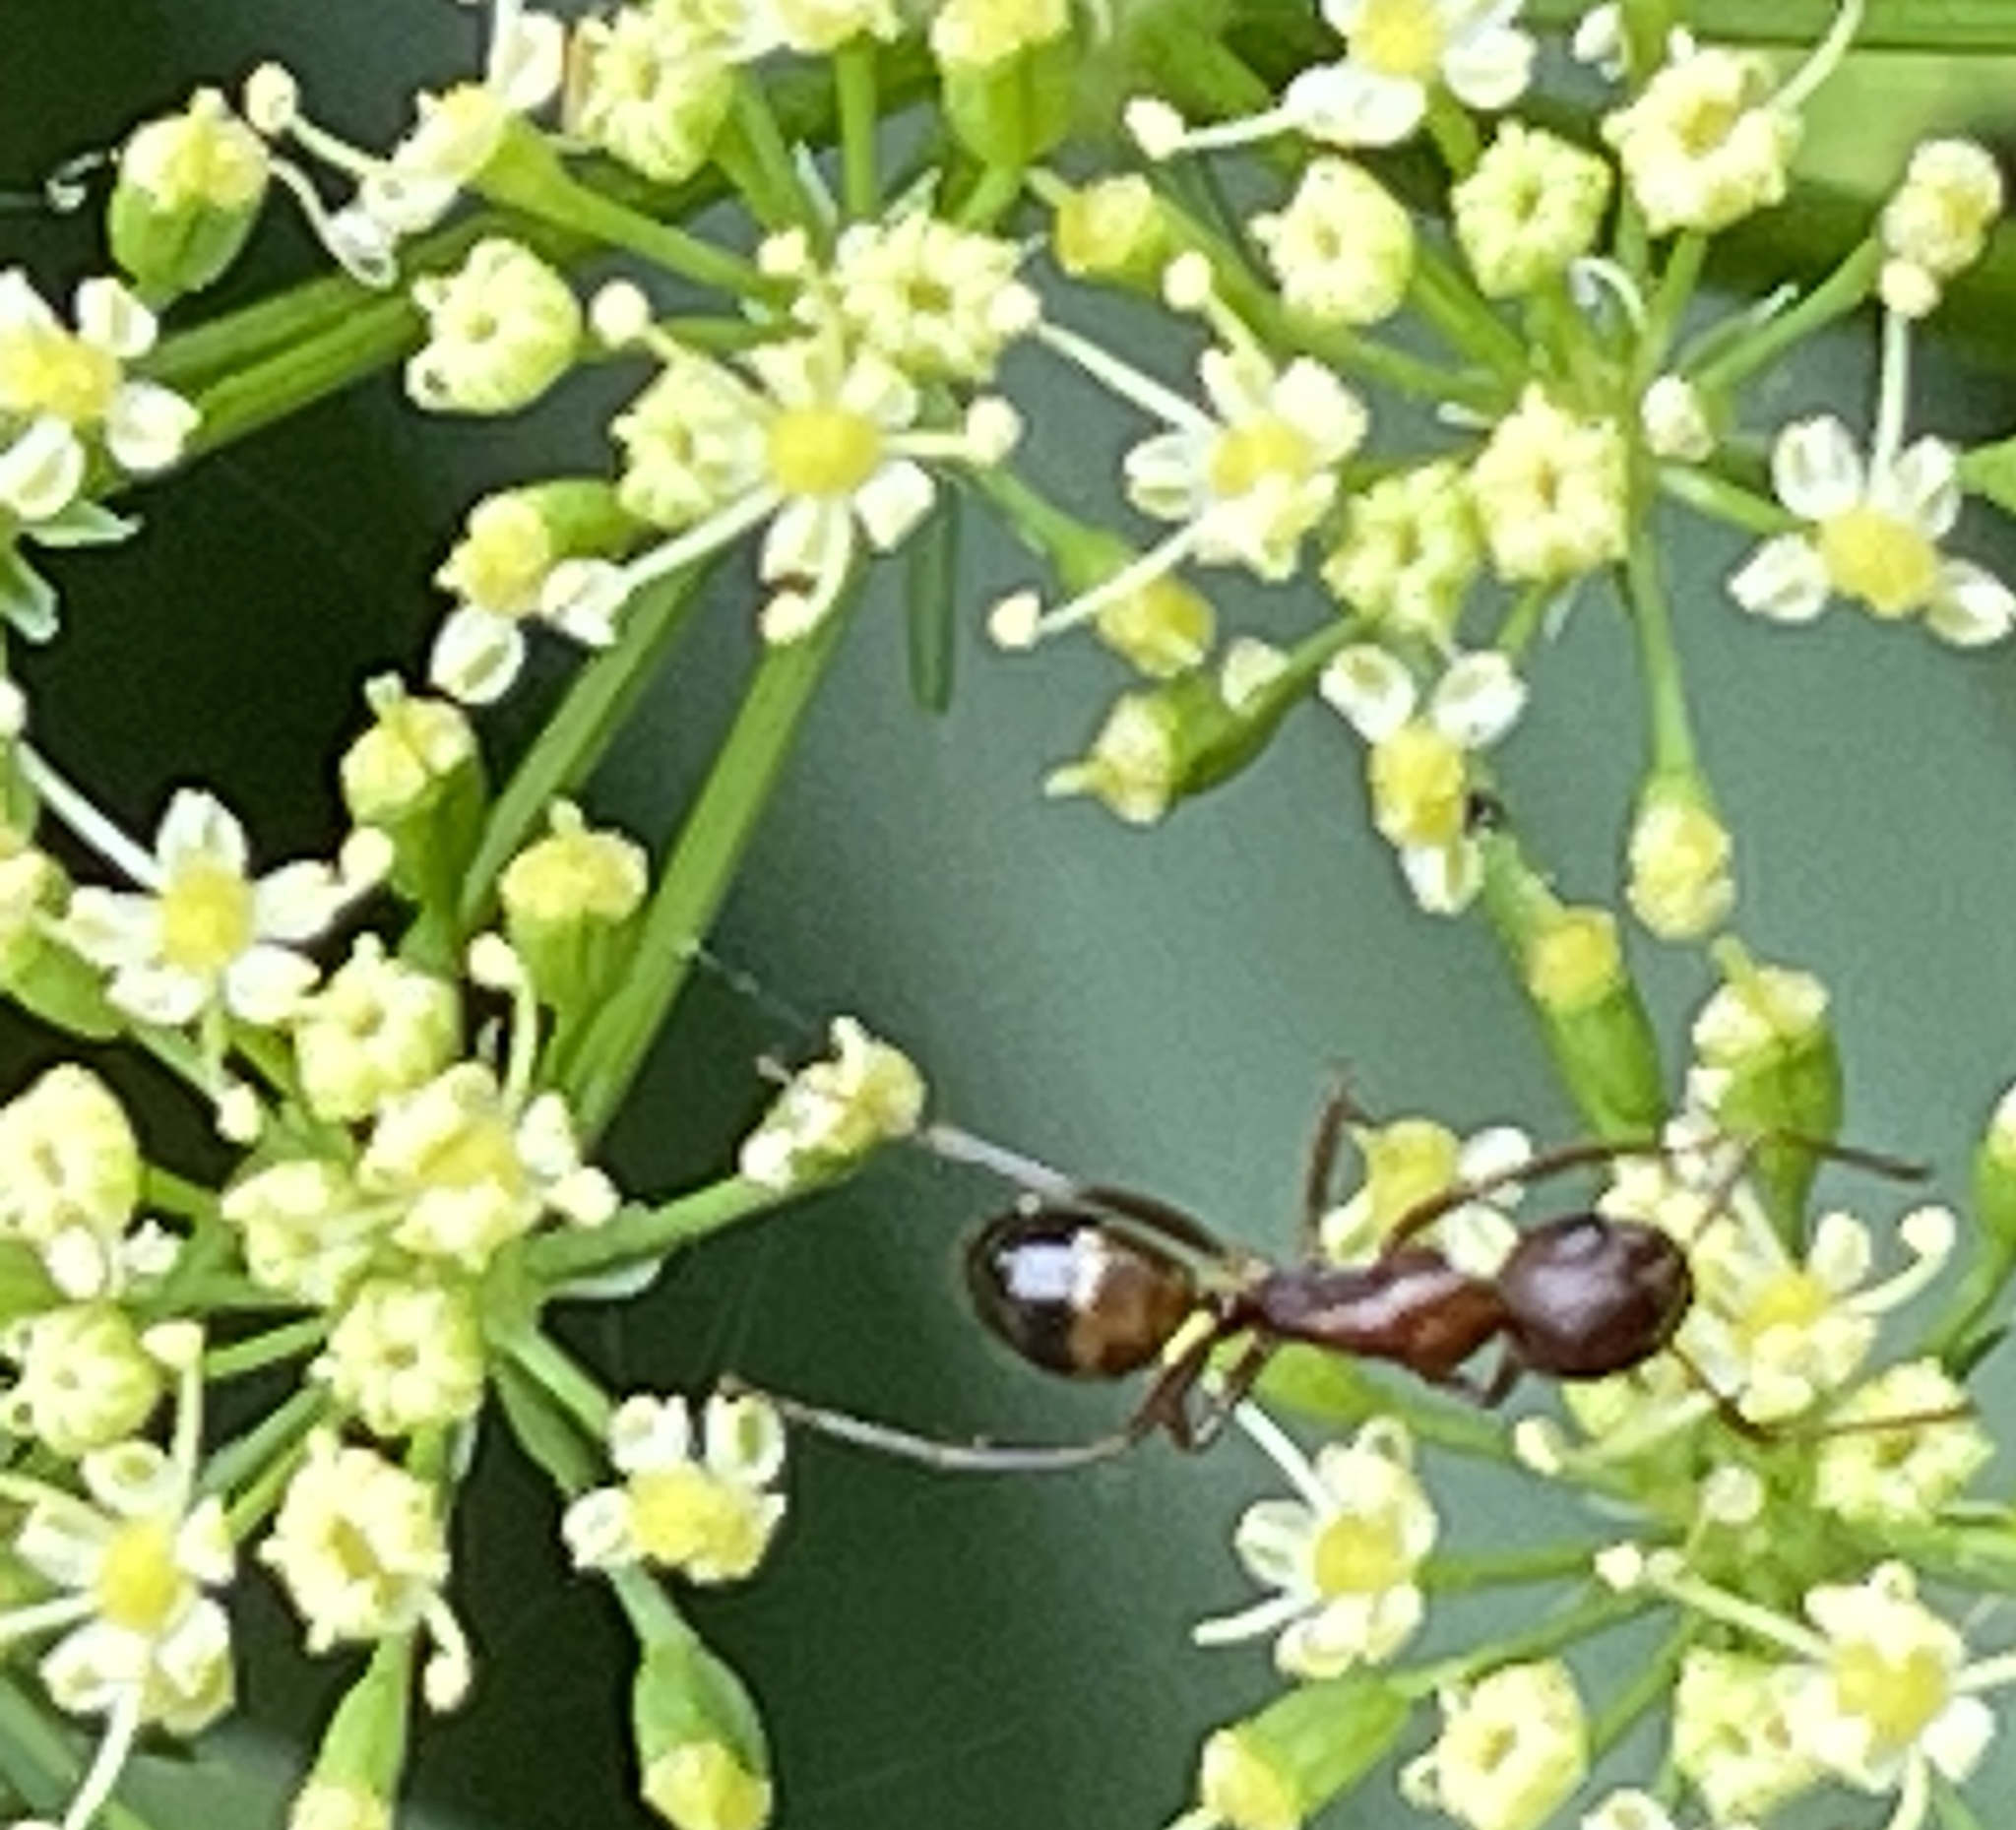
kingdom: Animalia
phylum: Arthropoda
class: Insecta
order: Hymenoptera
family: Formicidae
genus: Camponotus
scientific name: Camponotus subbarbatus
